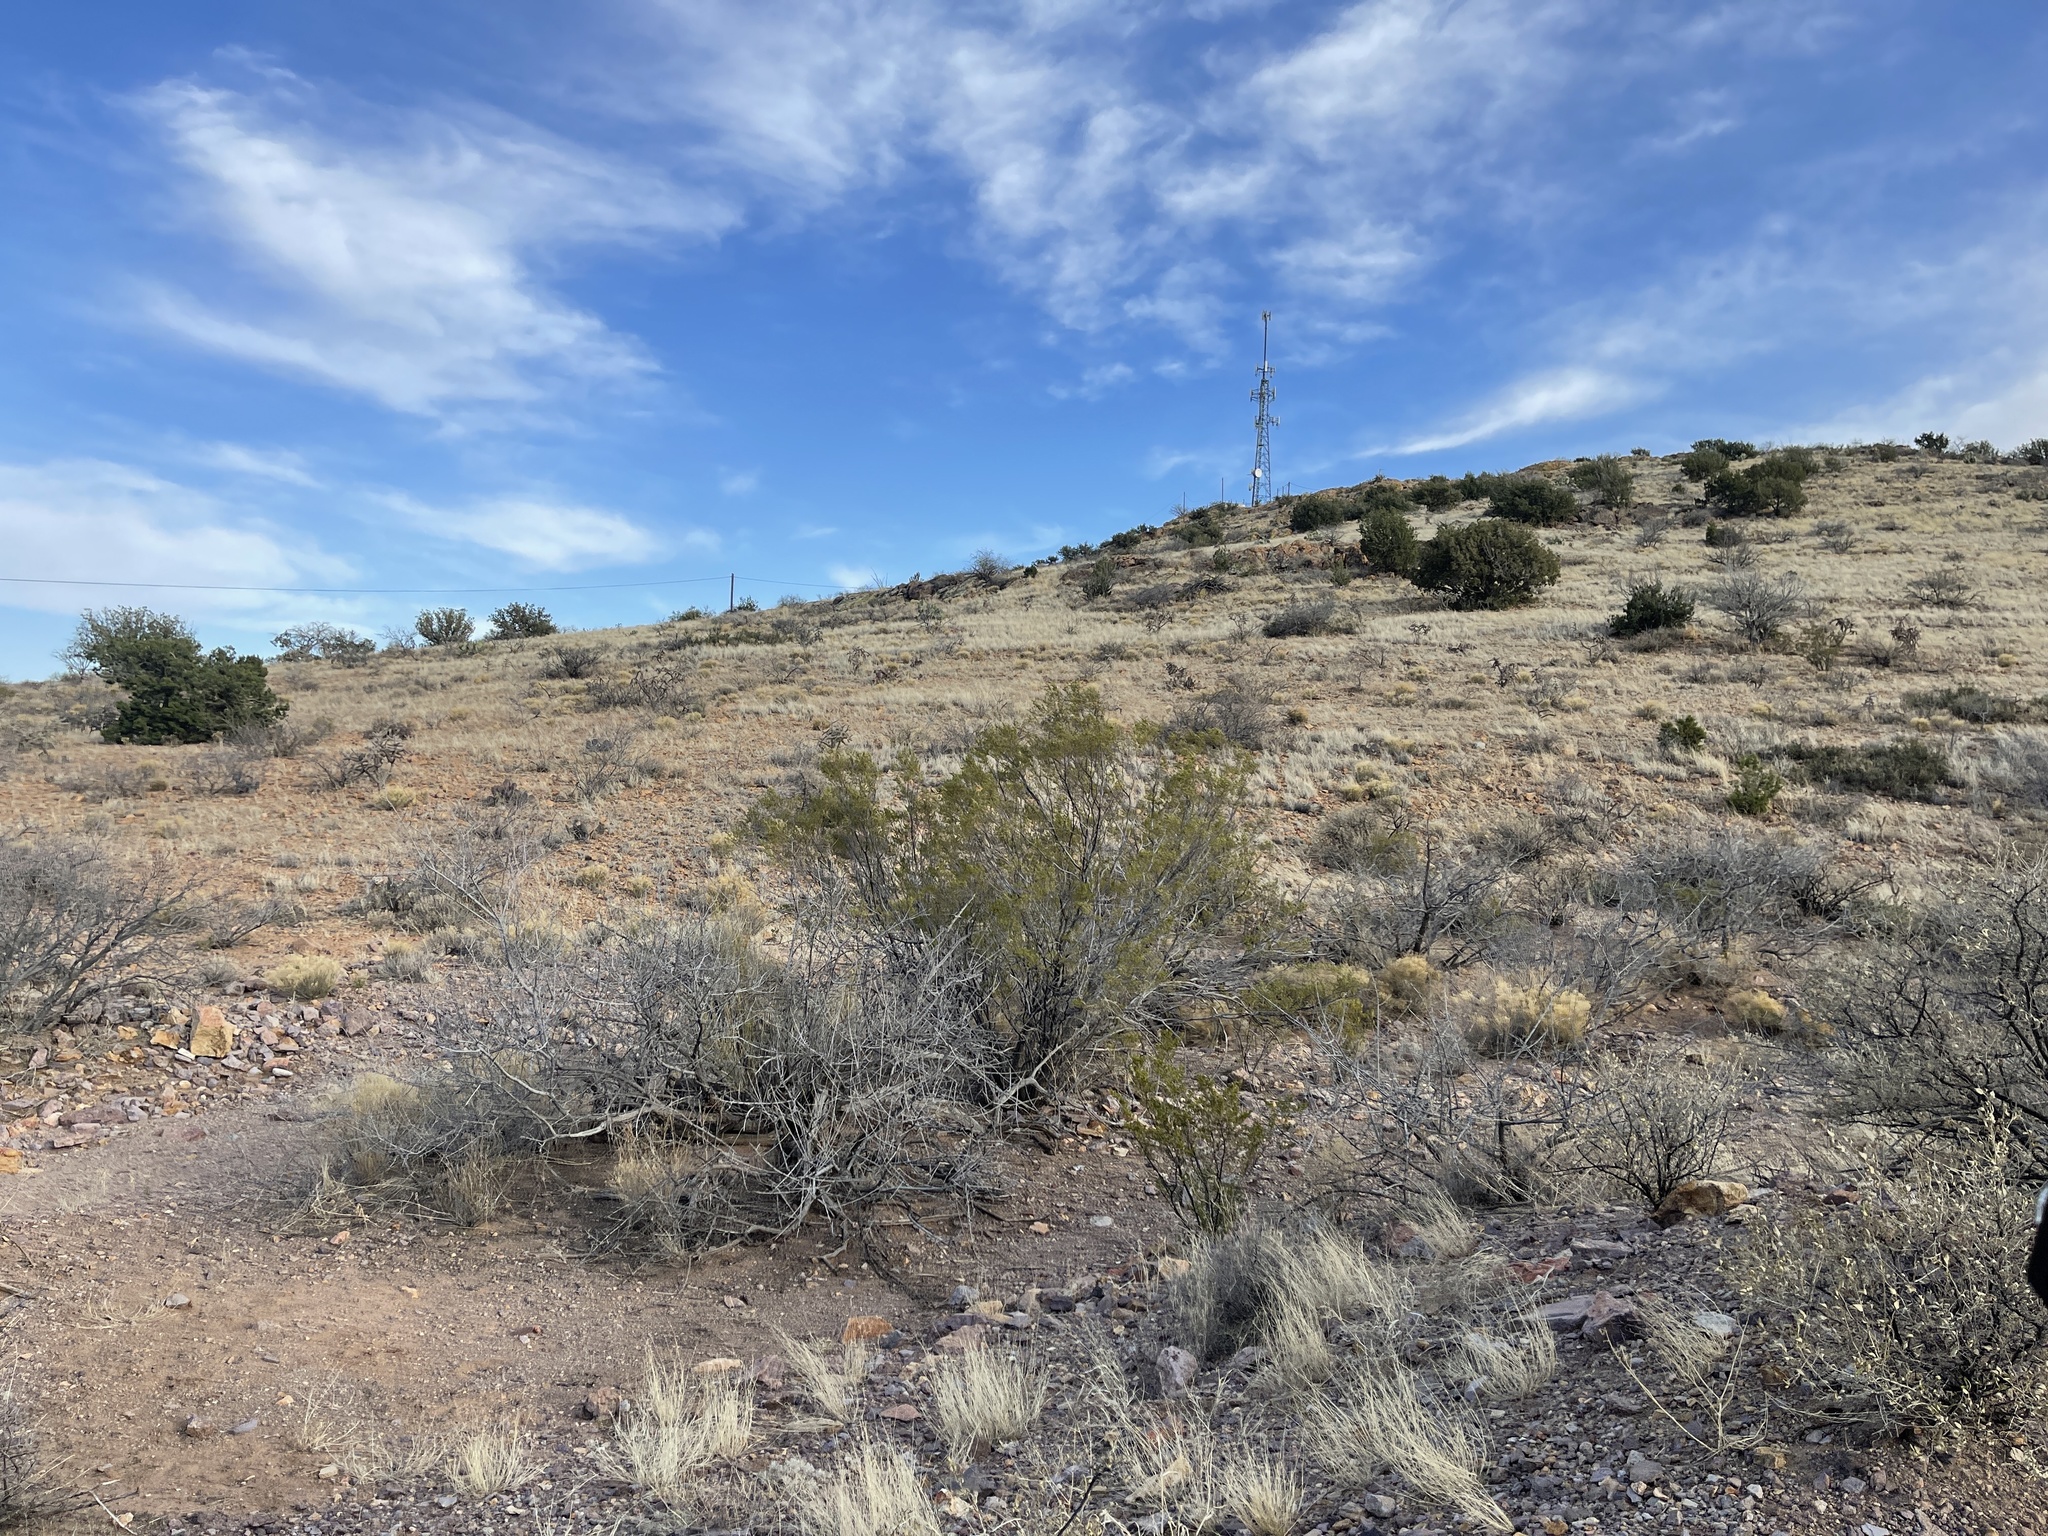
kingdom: Plantae
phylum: Tracheophyta
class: Magnoliopsida
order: Zygophyllales
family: Zygophyllaceae
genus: Larrea
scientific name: Larrea tridentata
